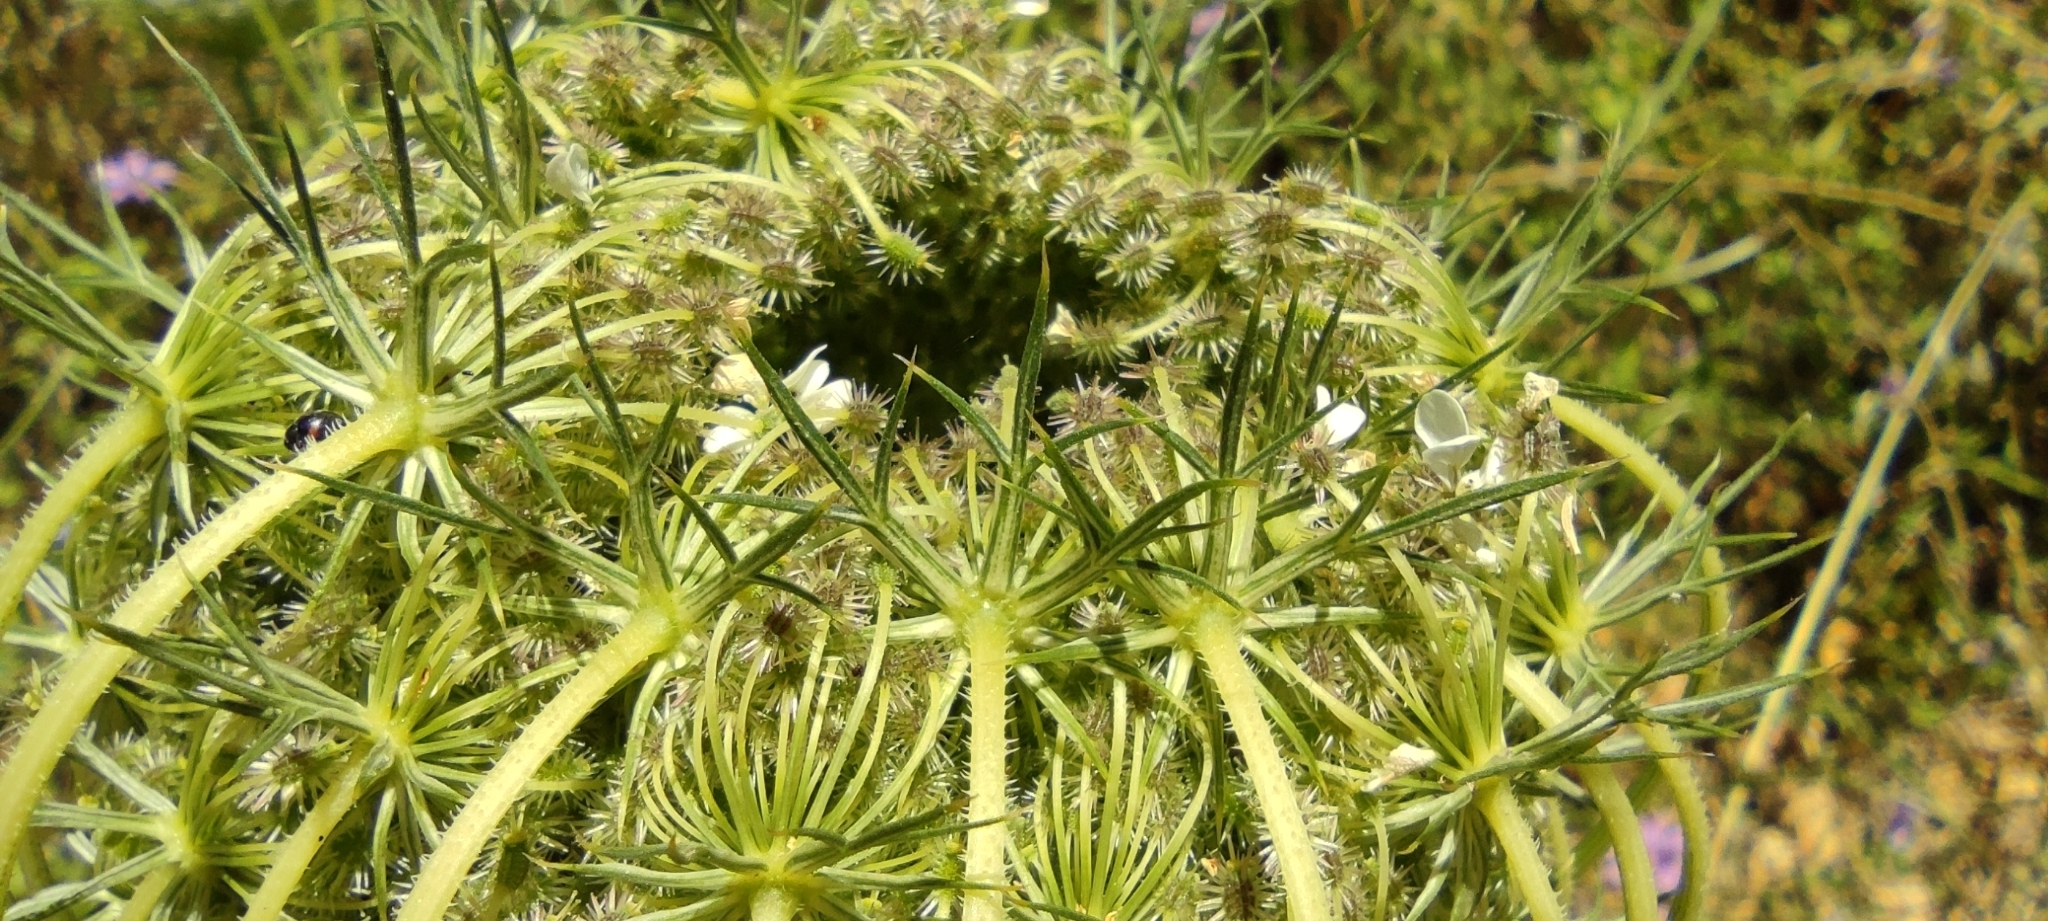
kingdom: Plantae
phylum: Tracheophyta
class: Magnoliopsida
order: Apiales
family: Apiaceae
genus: Daucus
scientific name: Daucus carota
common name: Wild carrot
